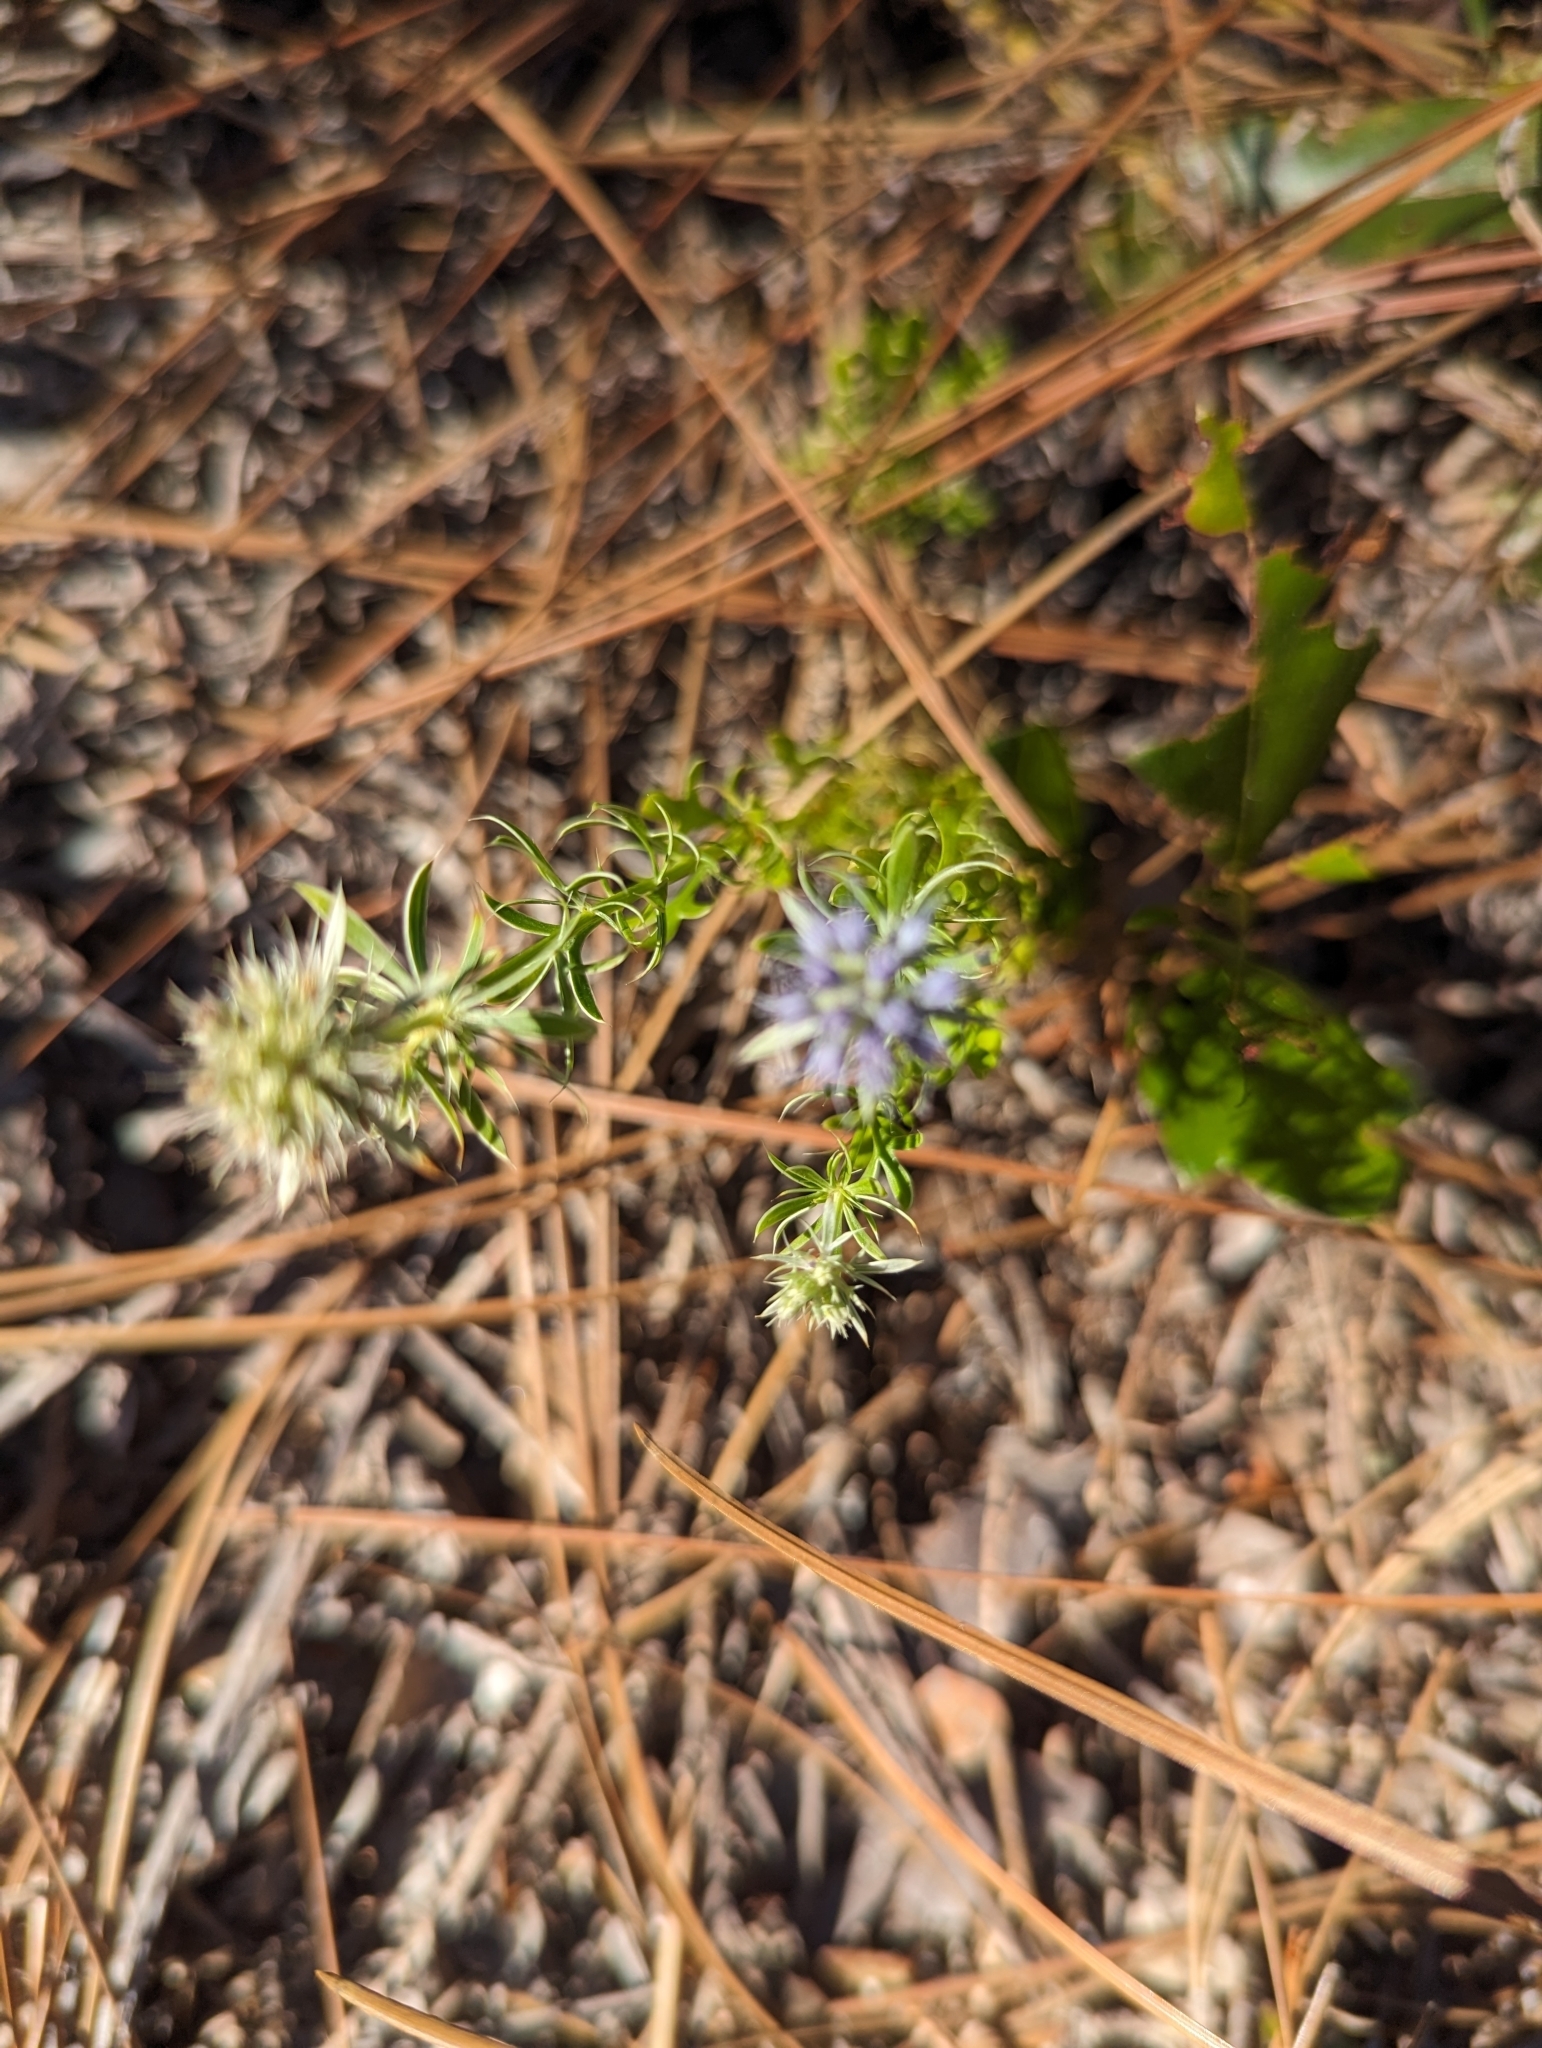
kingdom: Plantae
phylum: Tracheophyta
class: Magnoliopsida
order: Apiales
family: Apiaceae
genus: Eryngium
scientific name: Eryngium aromaticum
